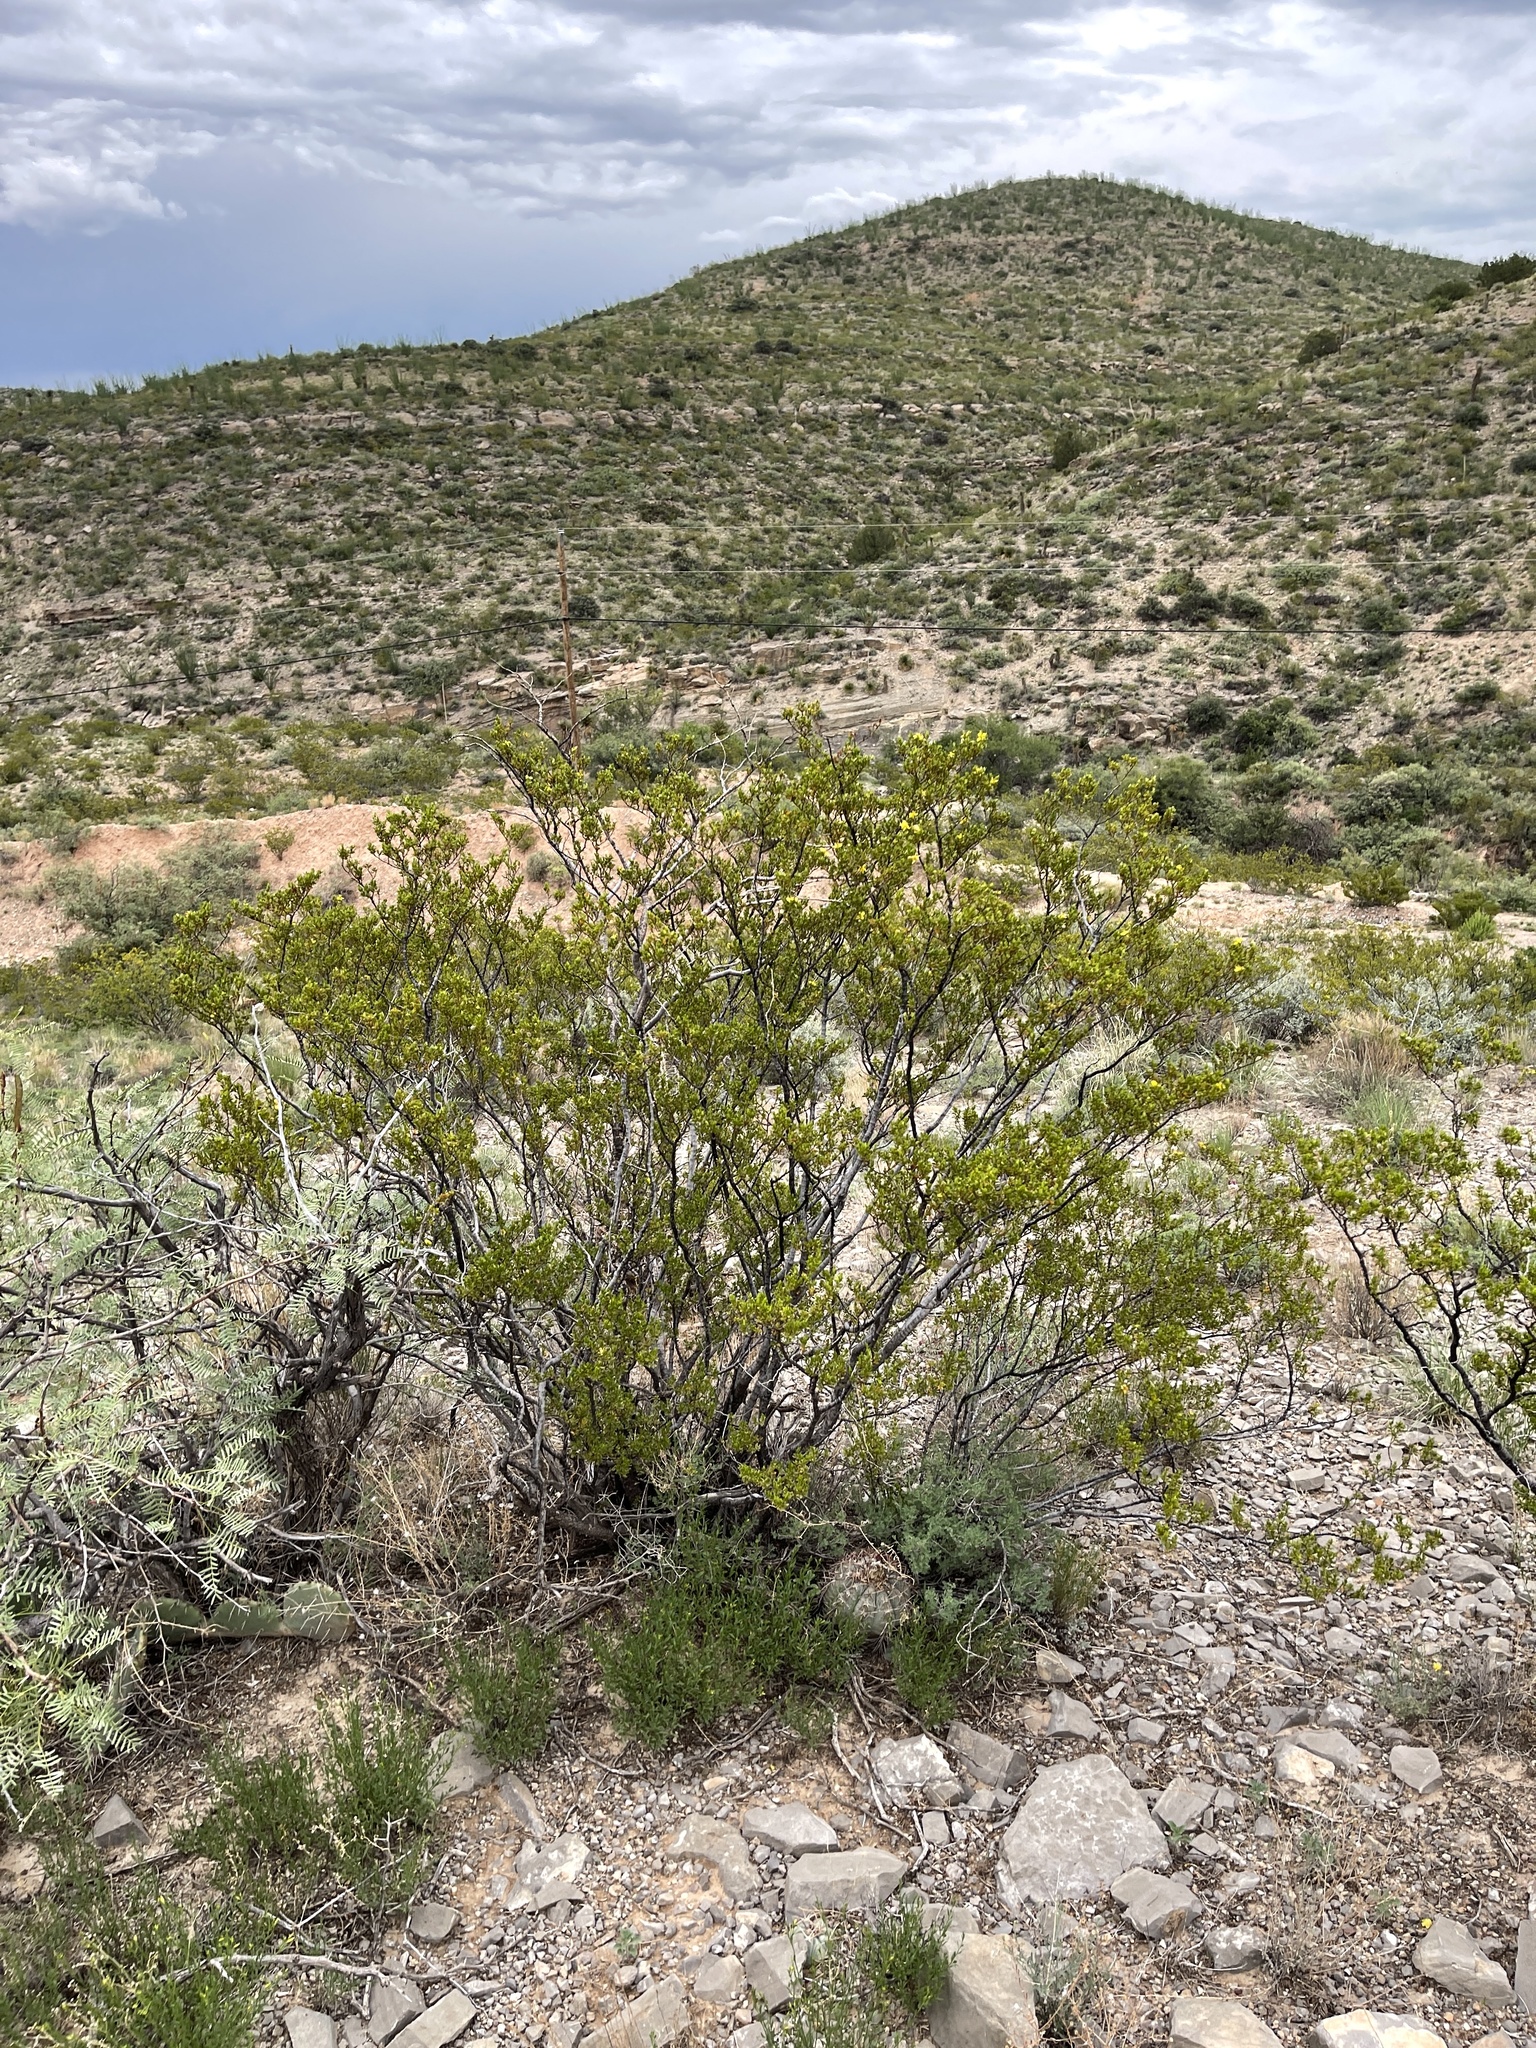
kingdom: Plantae
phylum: Tracheophyta
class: Magnoliopsida
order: Zygophyllales
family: Zygophyllaceae
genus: Larrea
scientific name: Larrea tridentata
